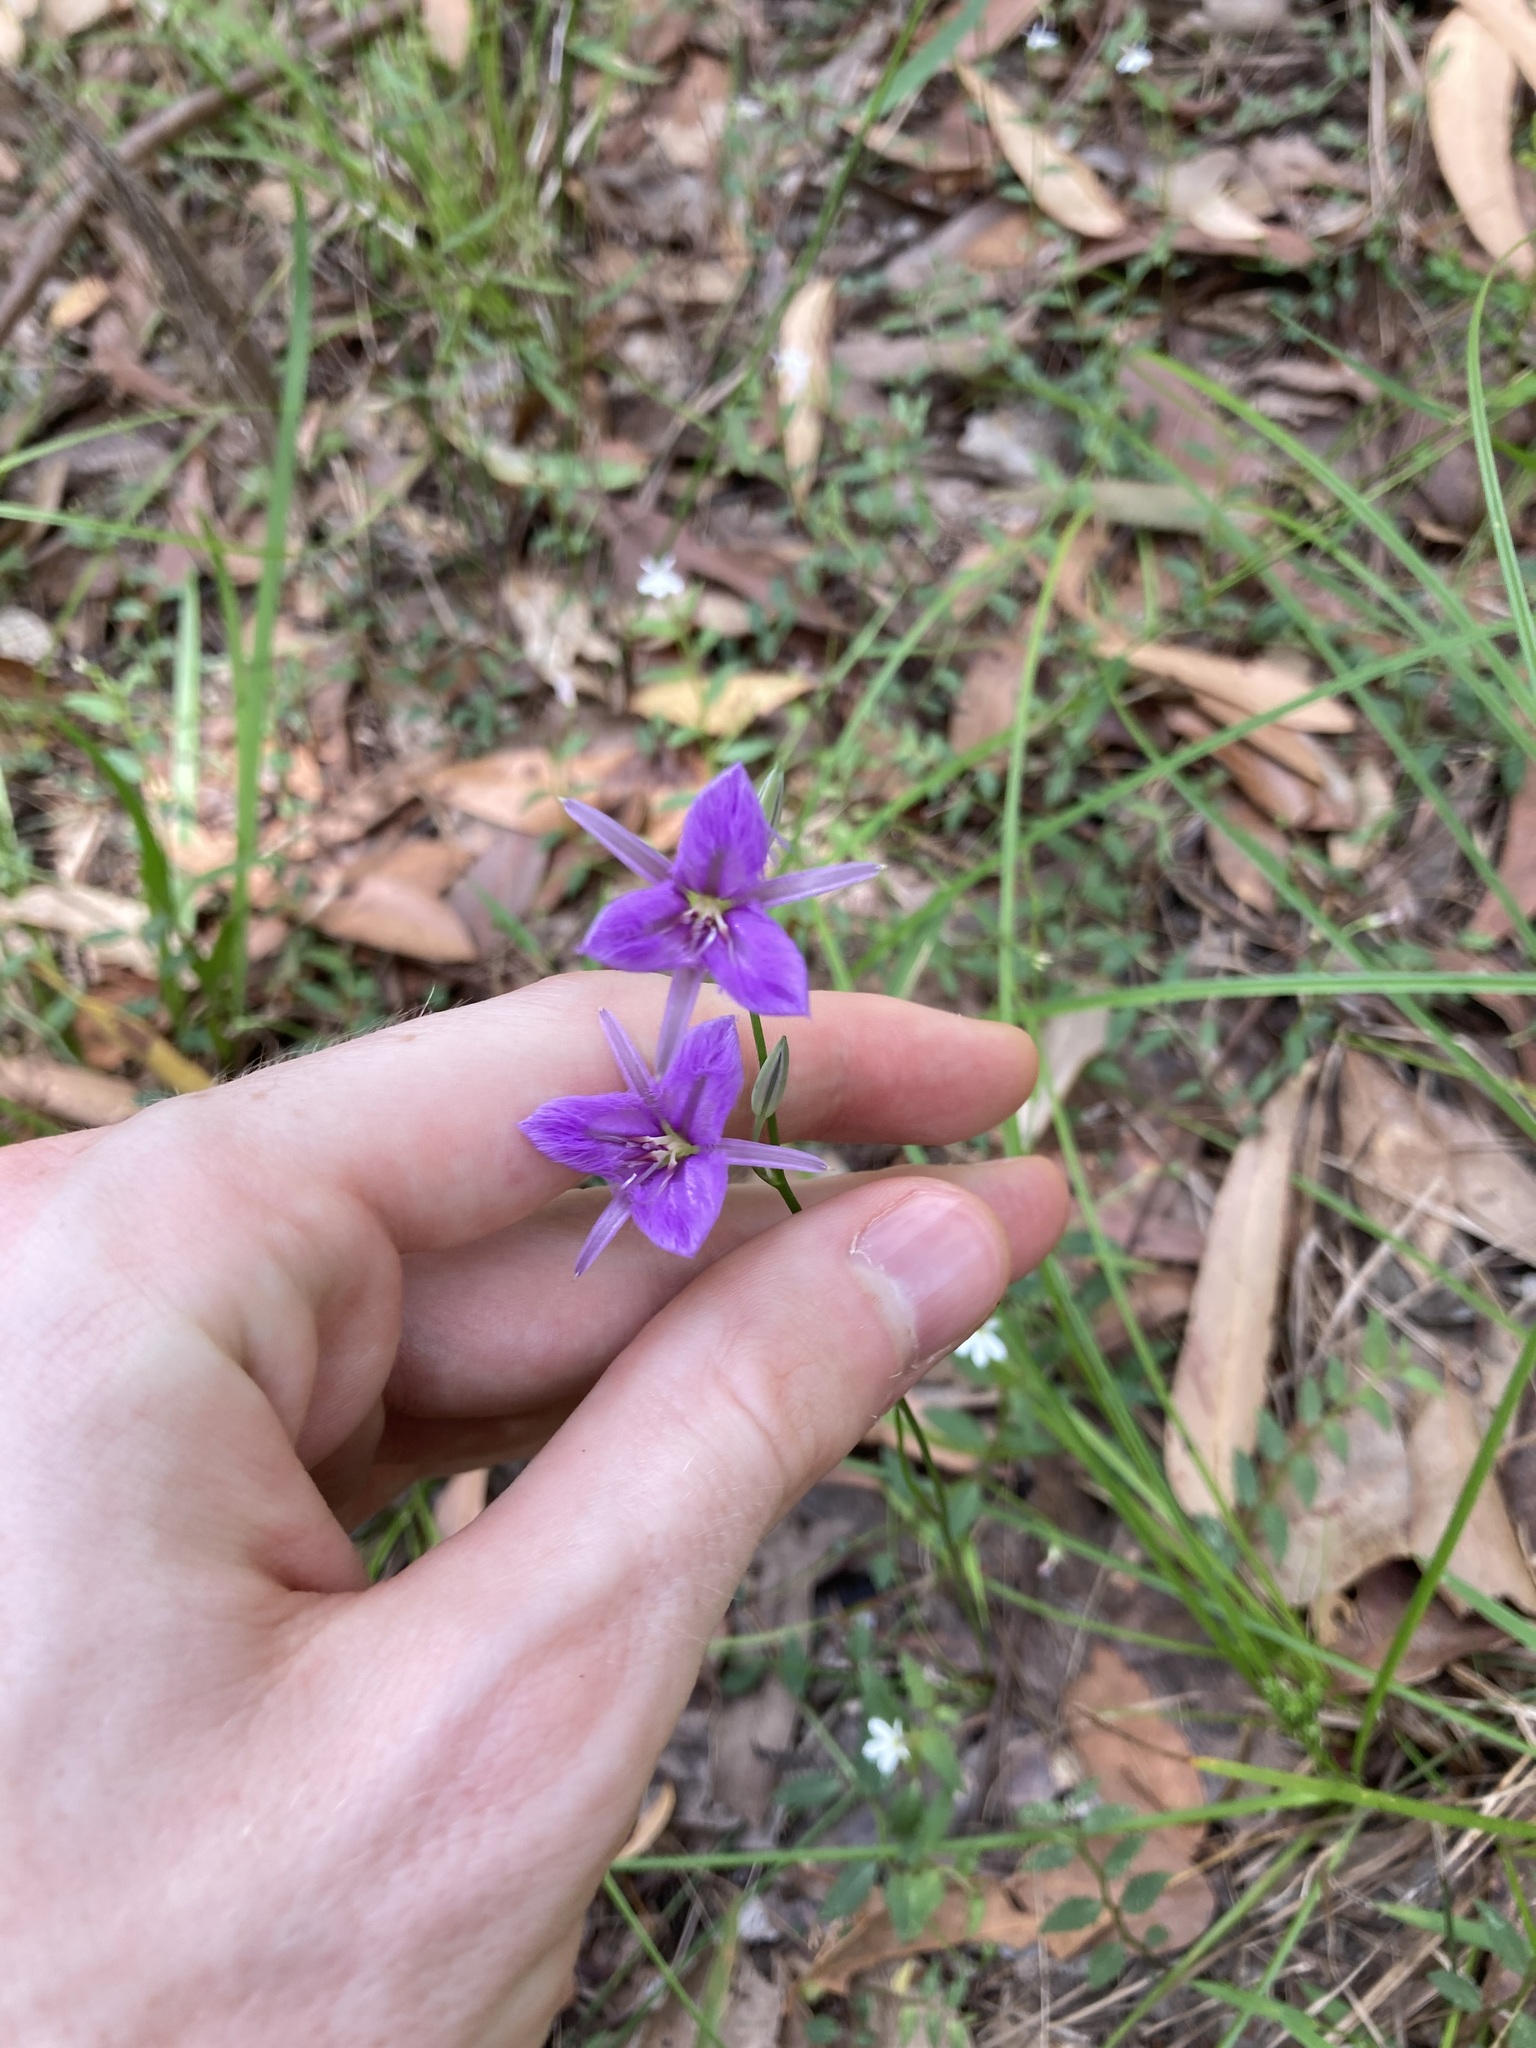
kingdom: Plantae
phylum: Tracheophyta
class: Liliopsida
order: Asparagales
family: Asparagaceae
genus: Thysanotus
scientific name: Thysanotus tuberosus
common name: Common fringed-lily
